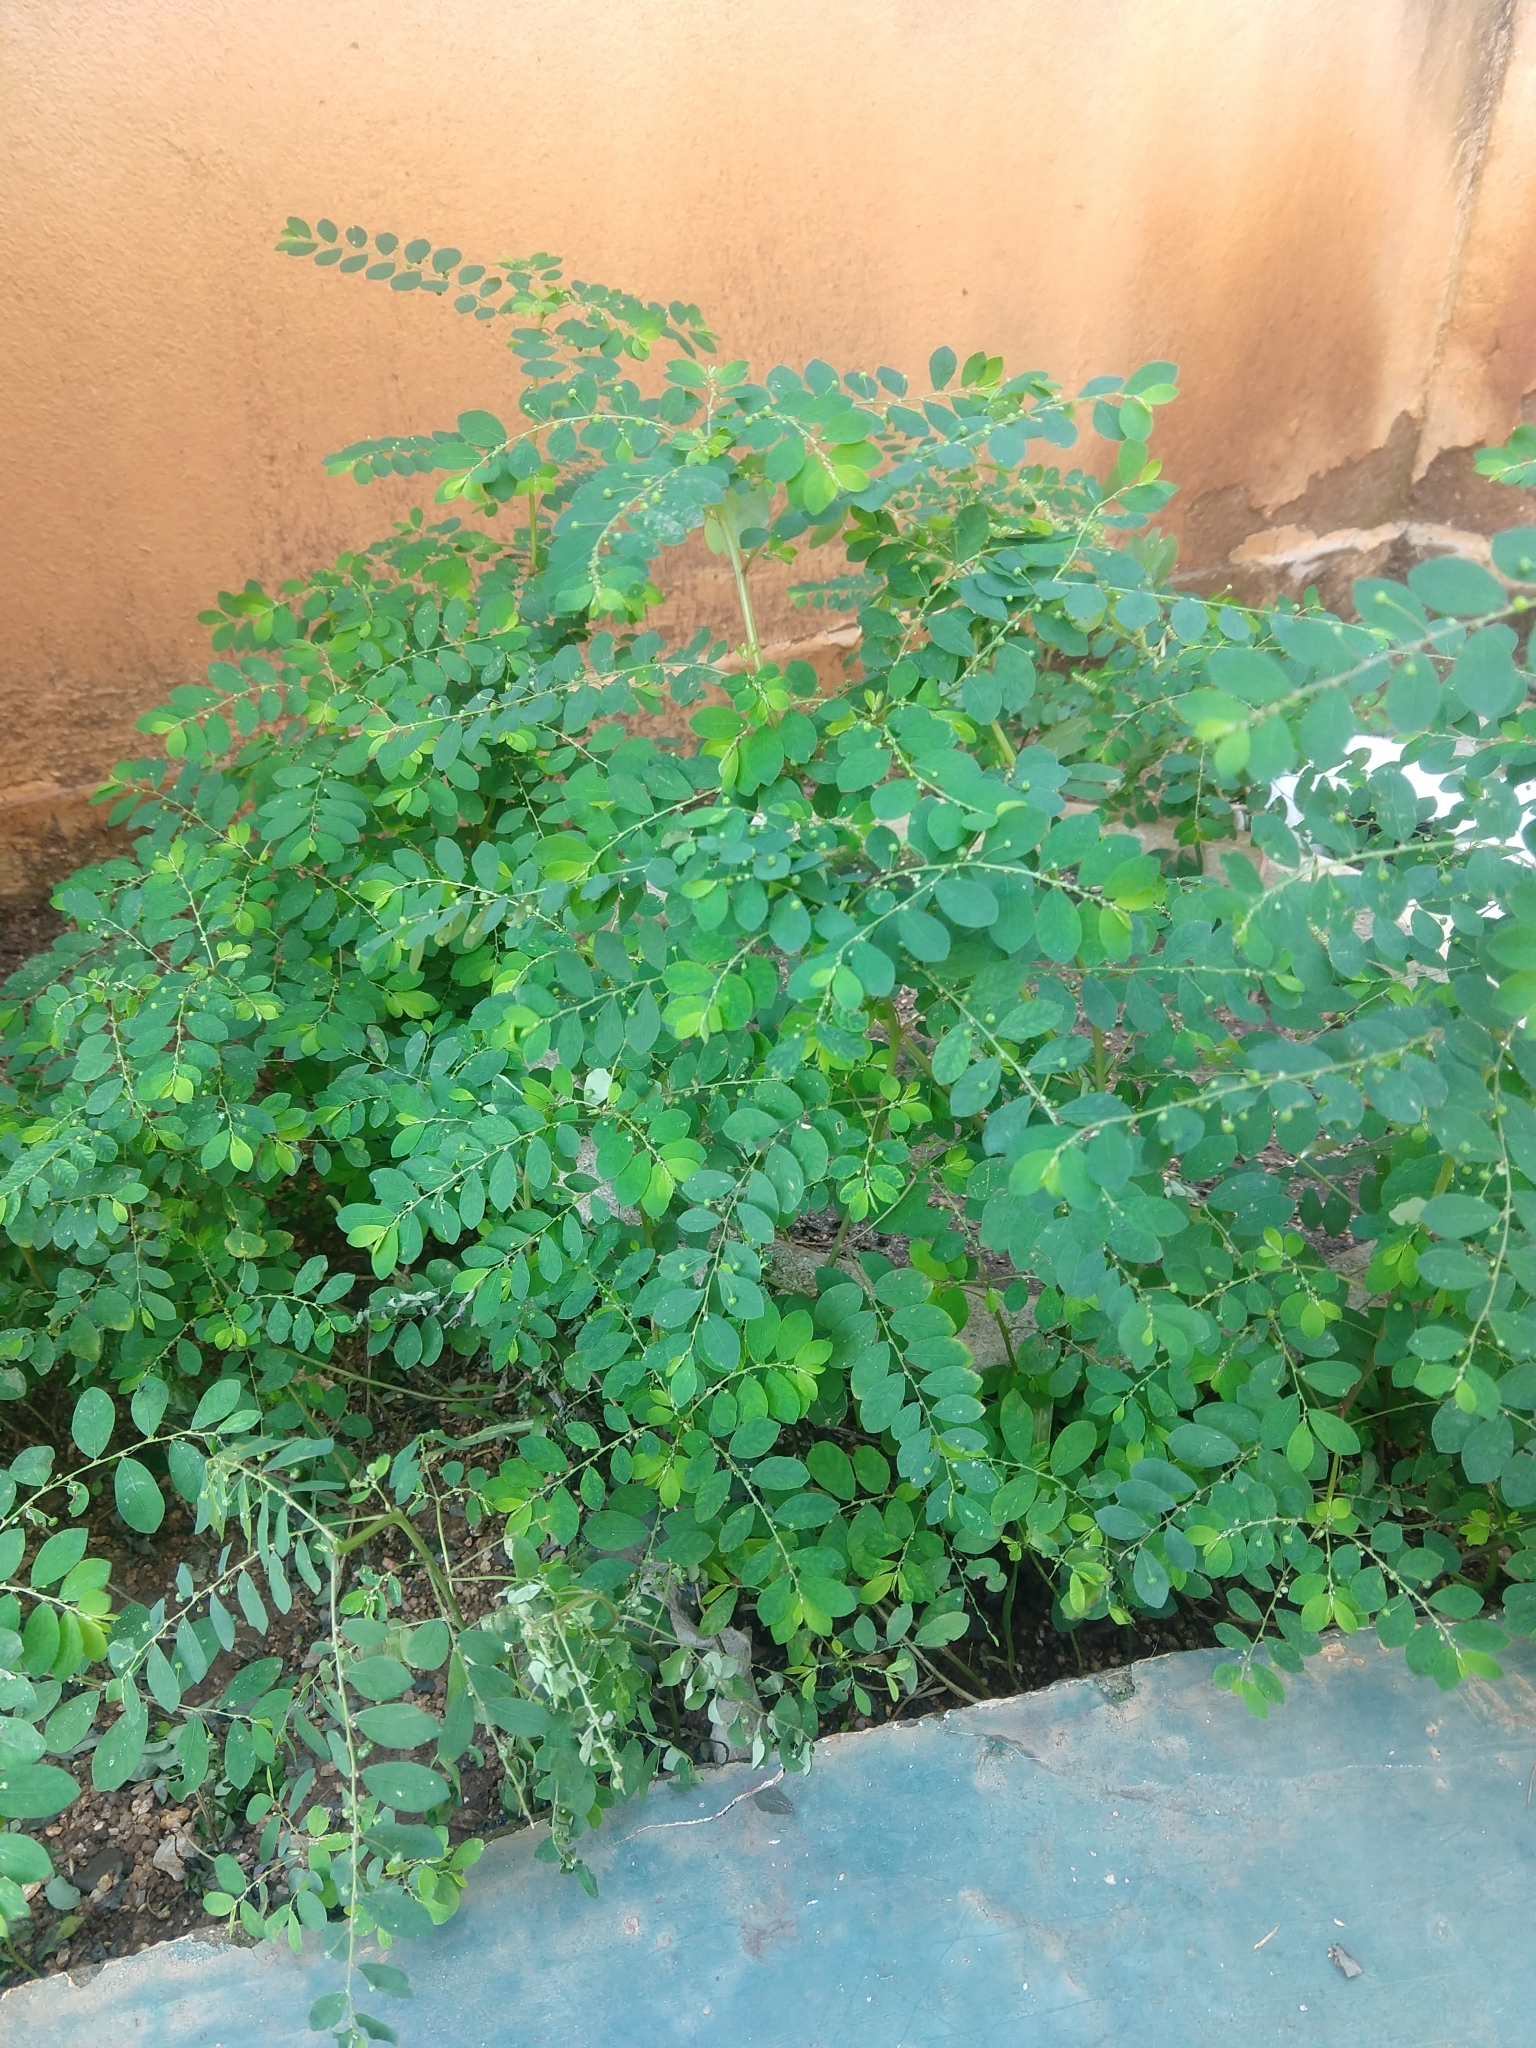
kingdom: Plantae
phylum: Tracheophyta
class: Magnoliopsida
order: Malpighiales
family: Phyllanthaceae
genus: Phyllanthus
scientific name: Phyllanthus tenellus
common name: Mascarene island leaf-flower
